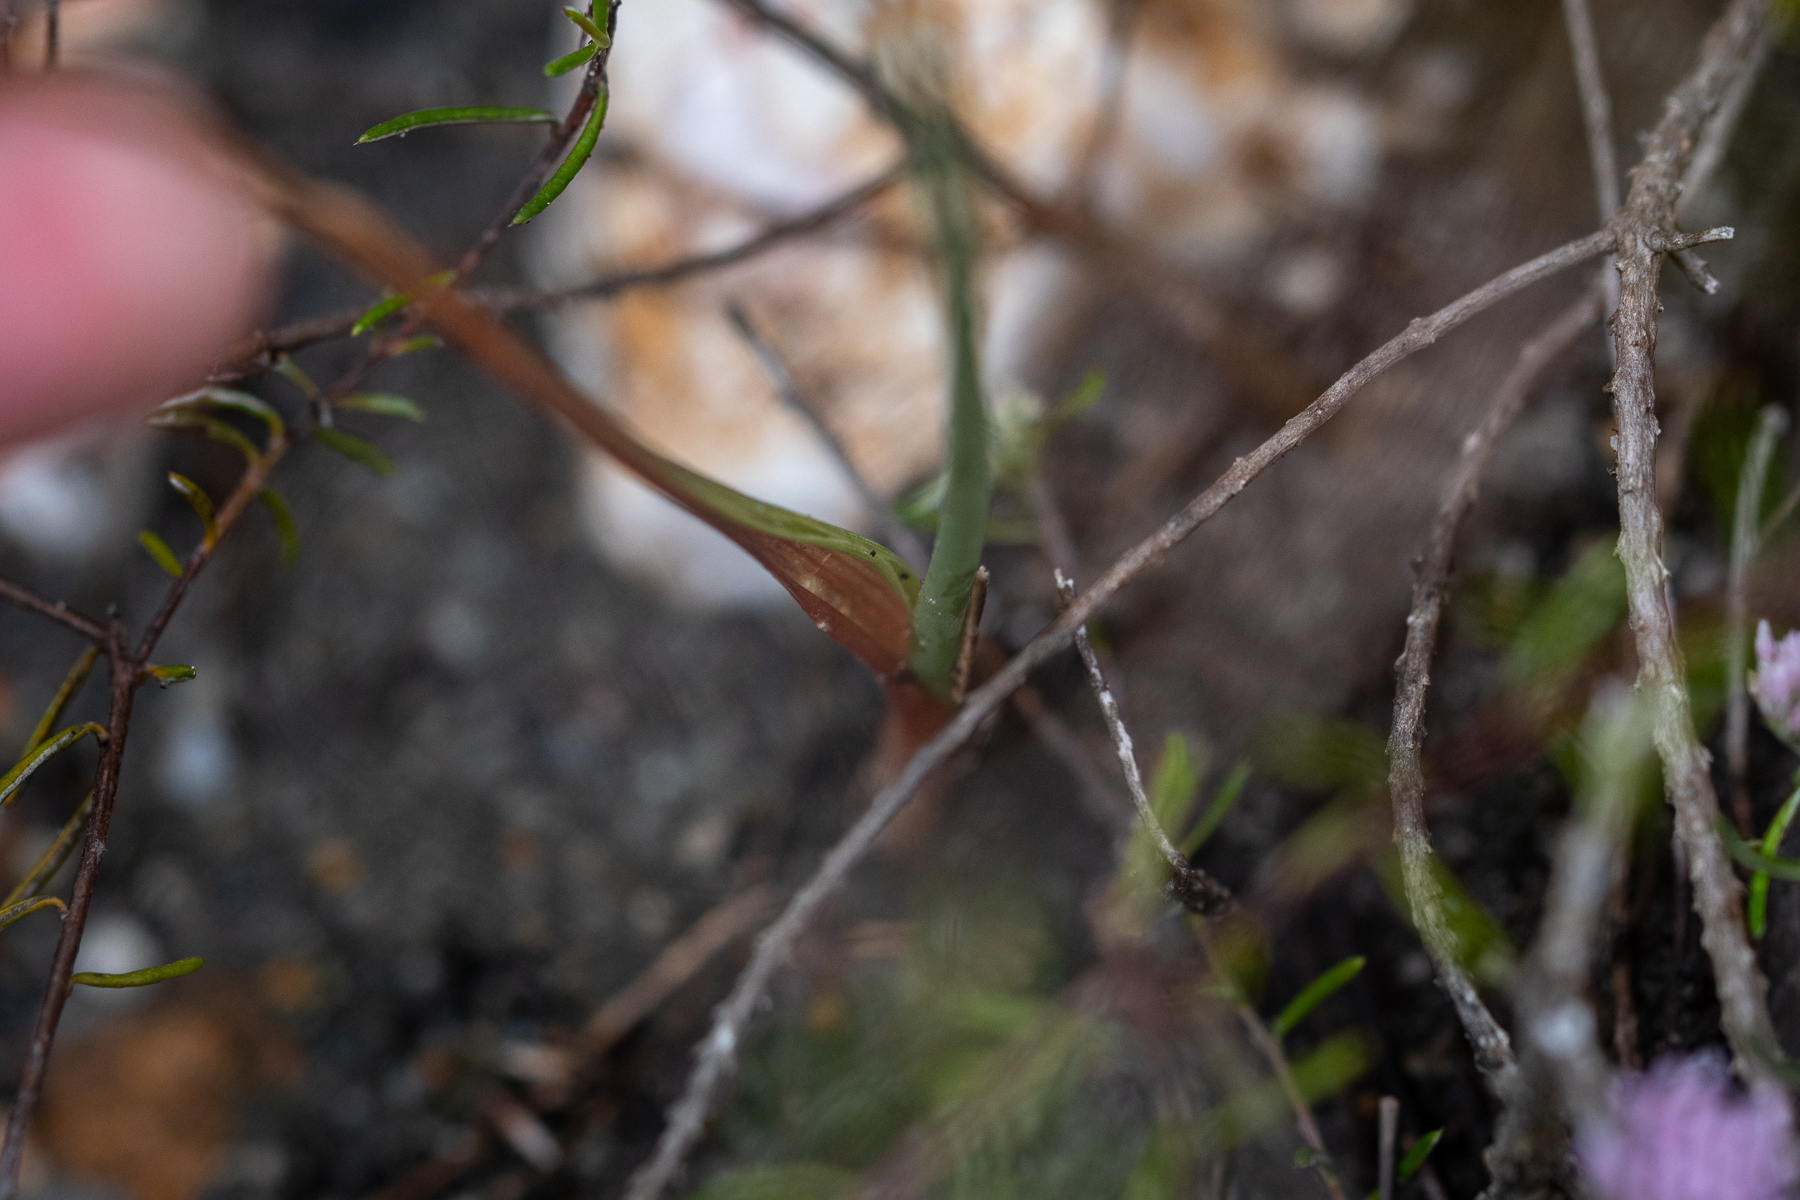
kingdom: Plantae
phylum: Tracheophyta
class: Liliopsida
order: Asparagales
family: Asparagaceae
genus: Albuca
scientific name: Albuca cooperi
